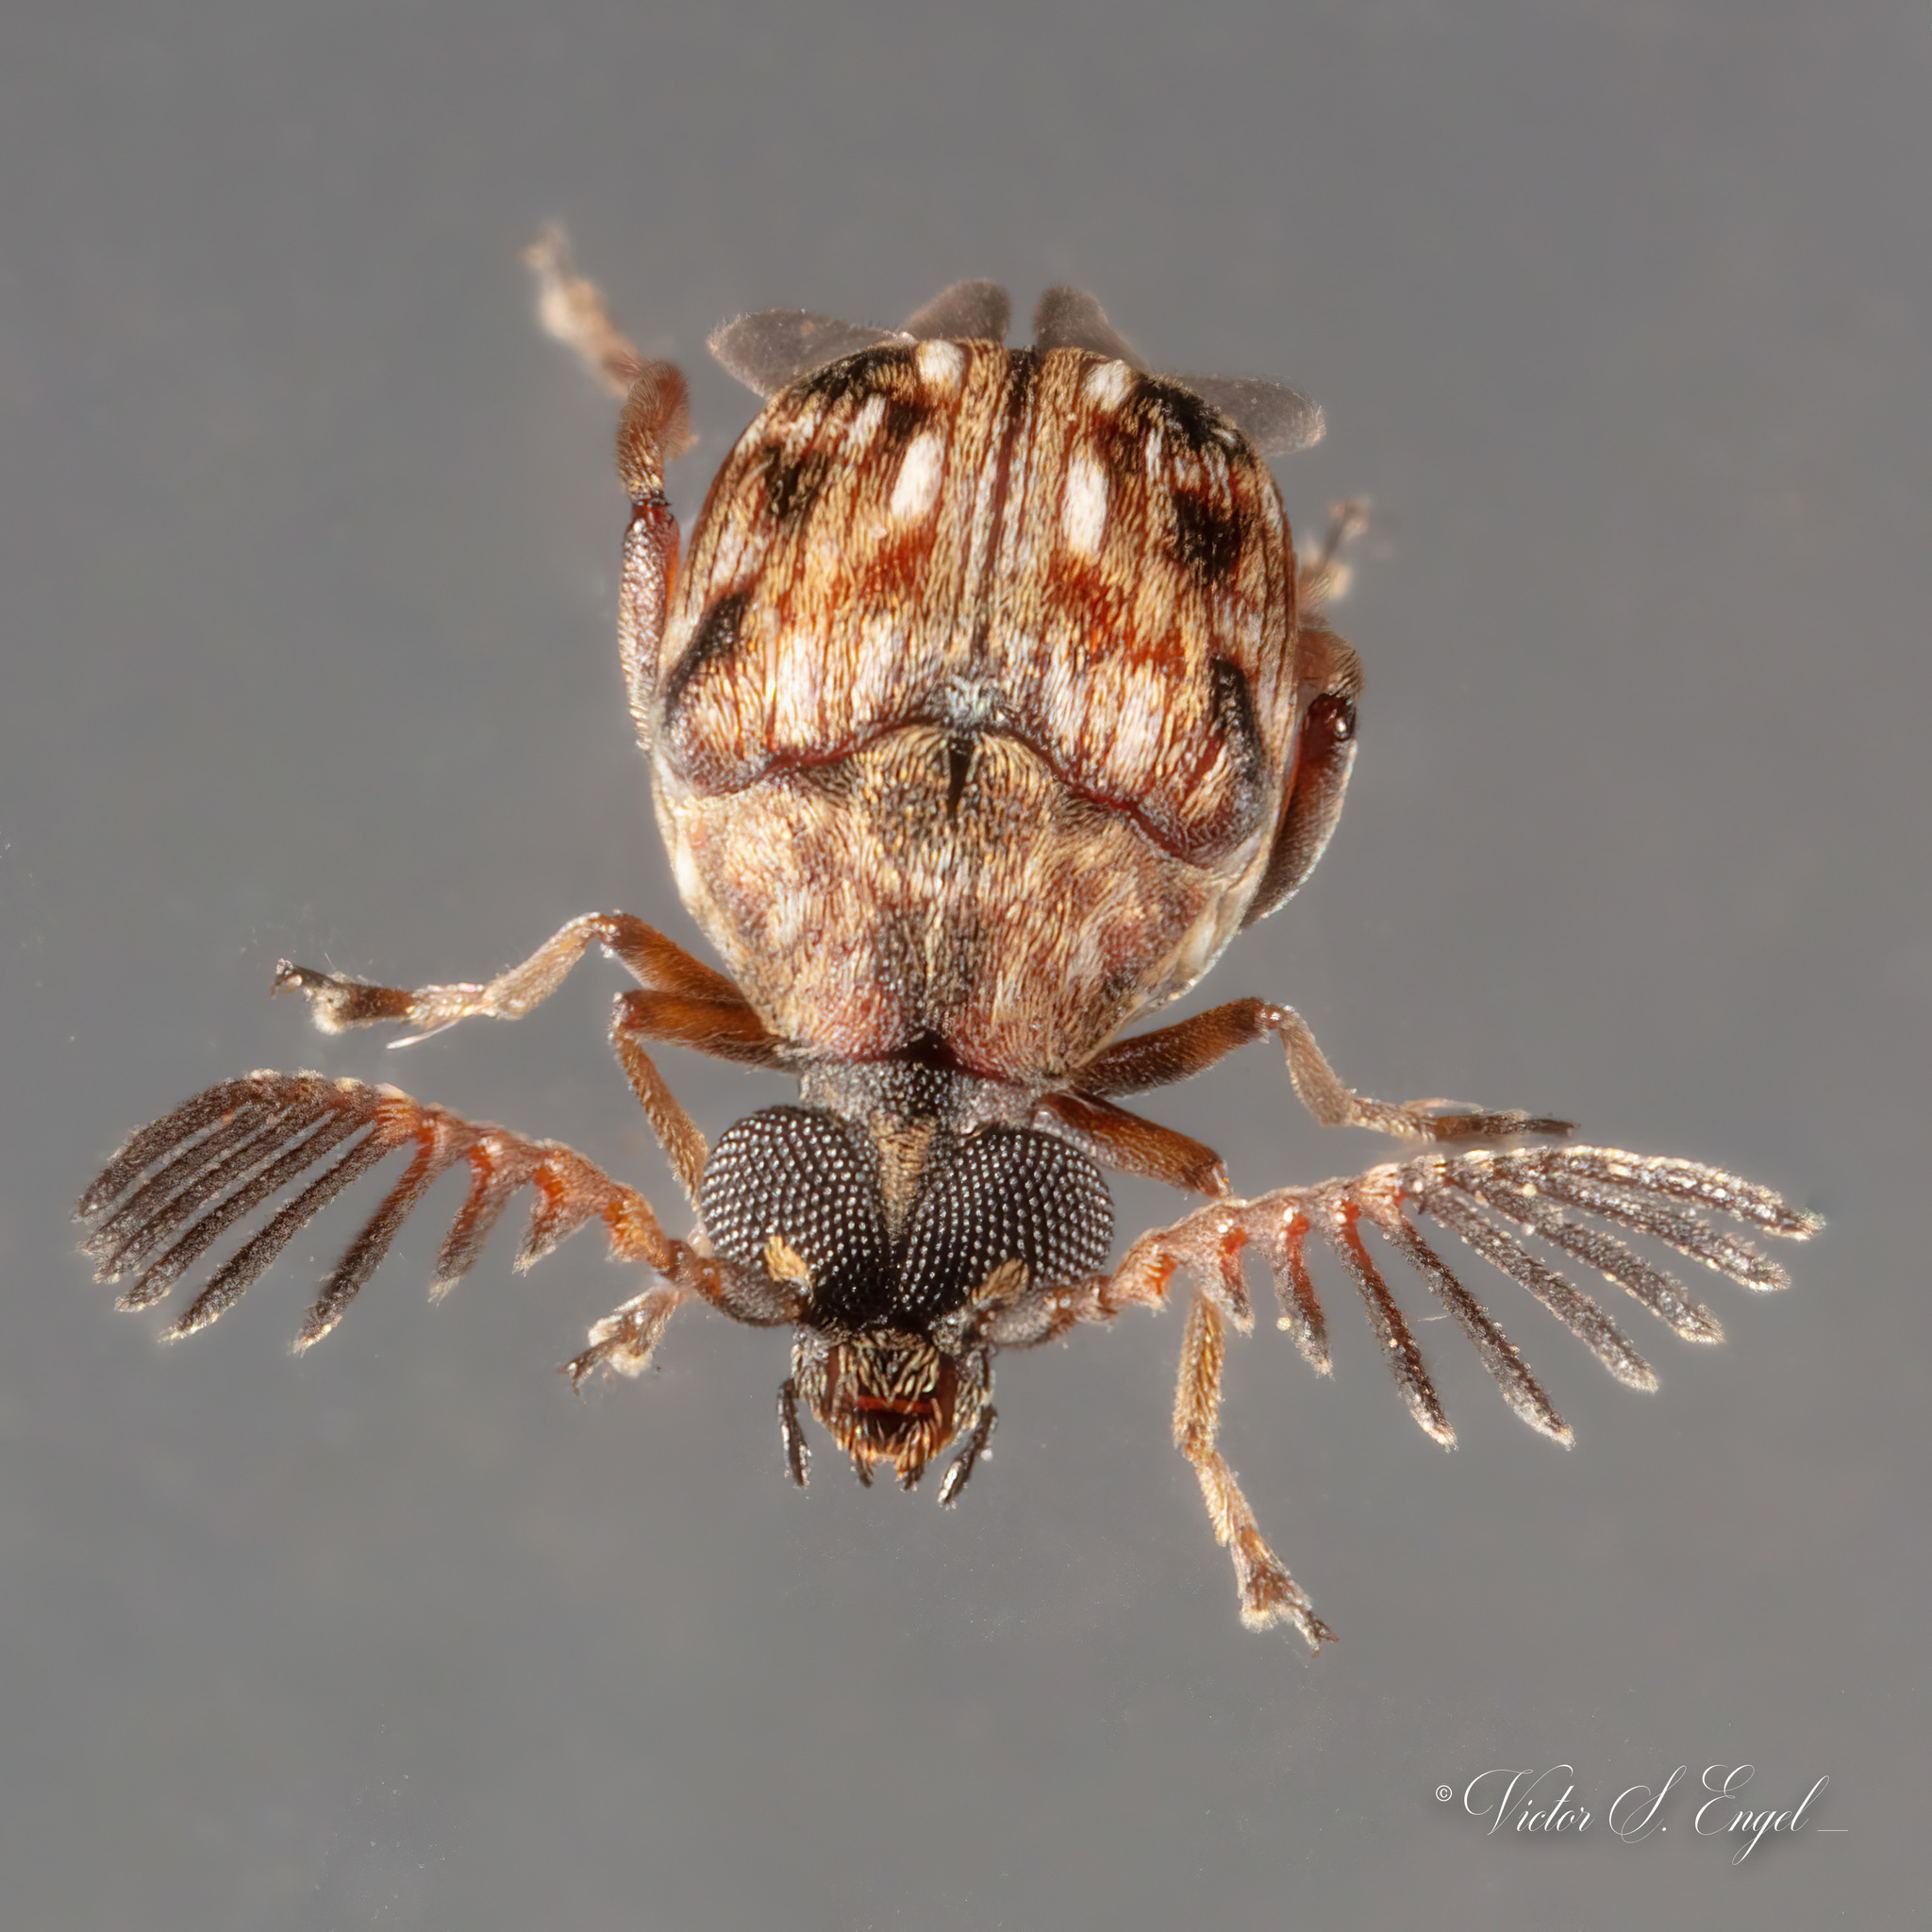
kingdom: Animalia
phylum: Arthropoda
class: Insecta
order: Coleoptera
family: Chrysomelidae
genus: Megacerus
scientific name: Megacerus cubiculus
